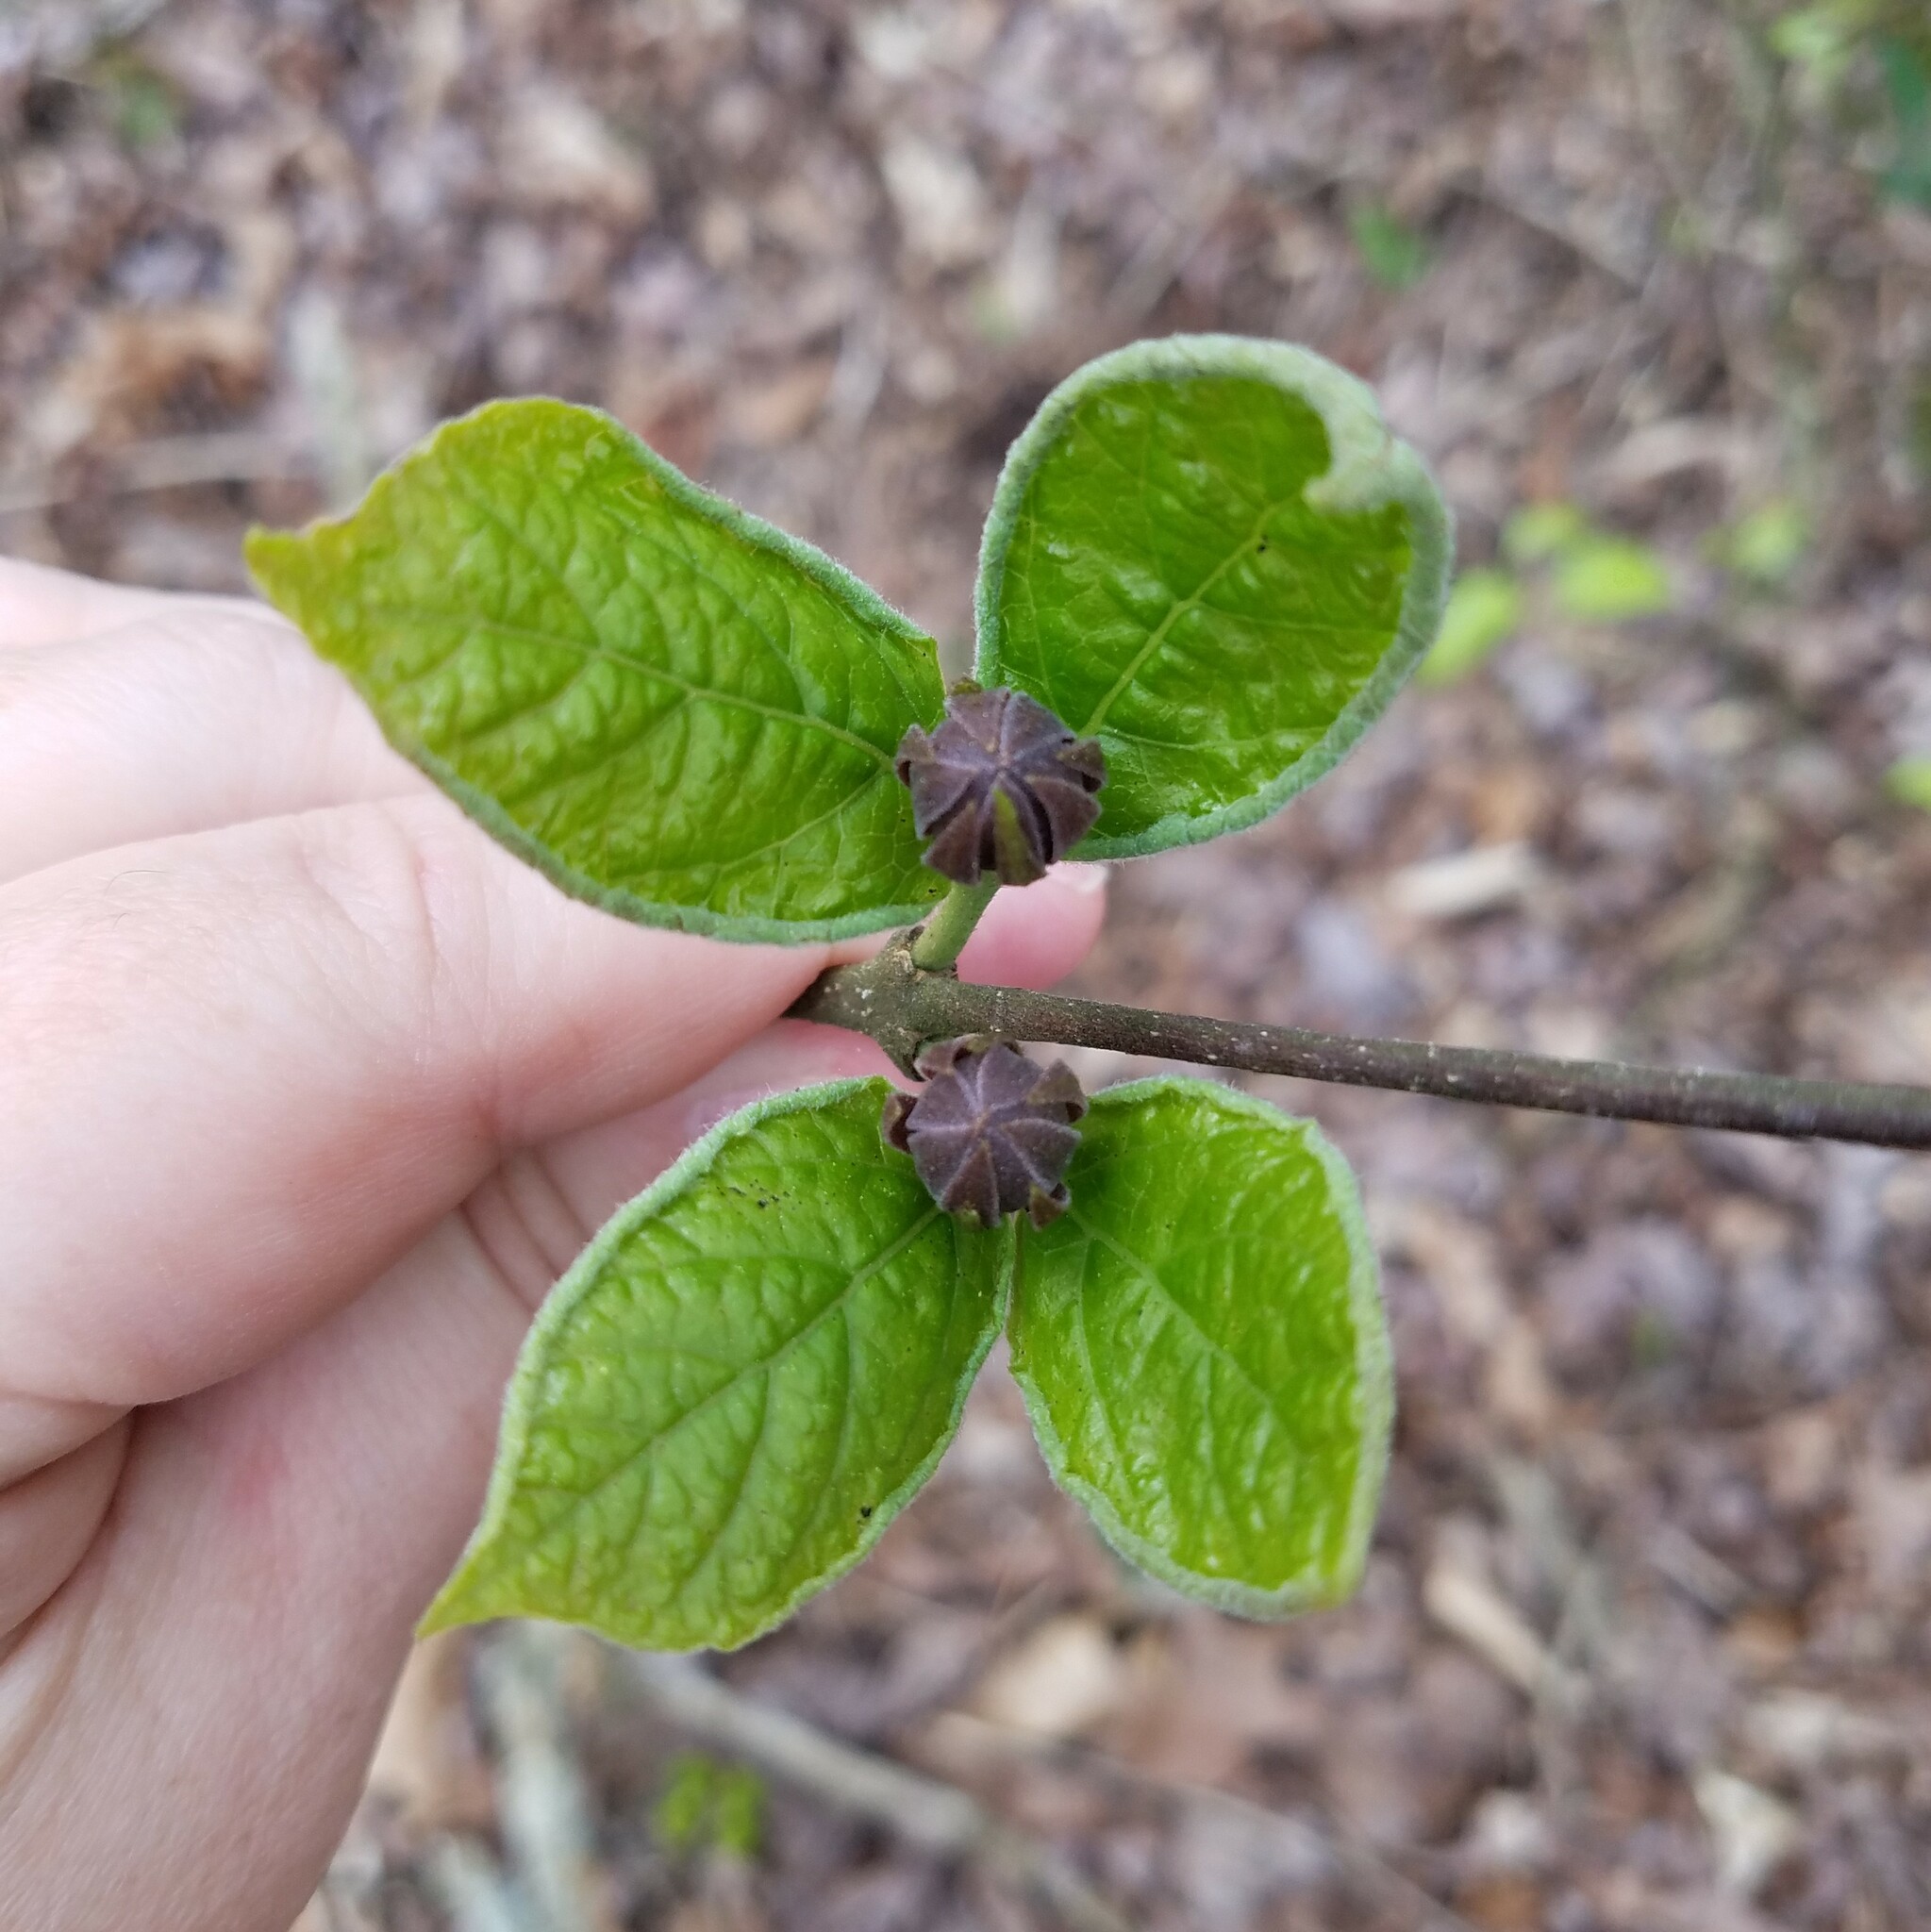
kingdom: Plantae
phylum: Tracheophyta
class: Magnoliopsida
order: Laurales
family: Calycanthaceae
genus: Calycanthus
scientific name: Calycanthus floridus
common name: Carolina-allspice
